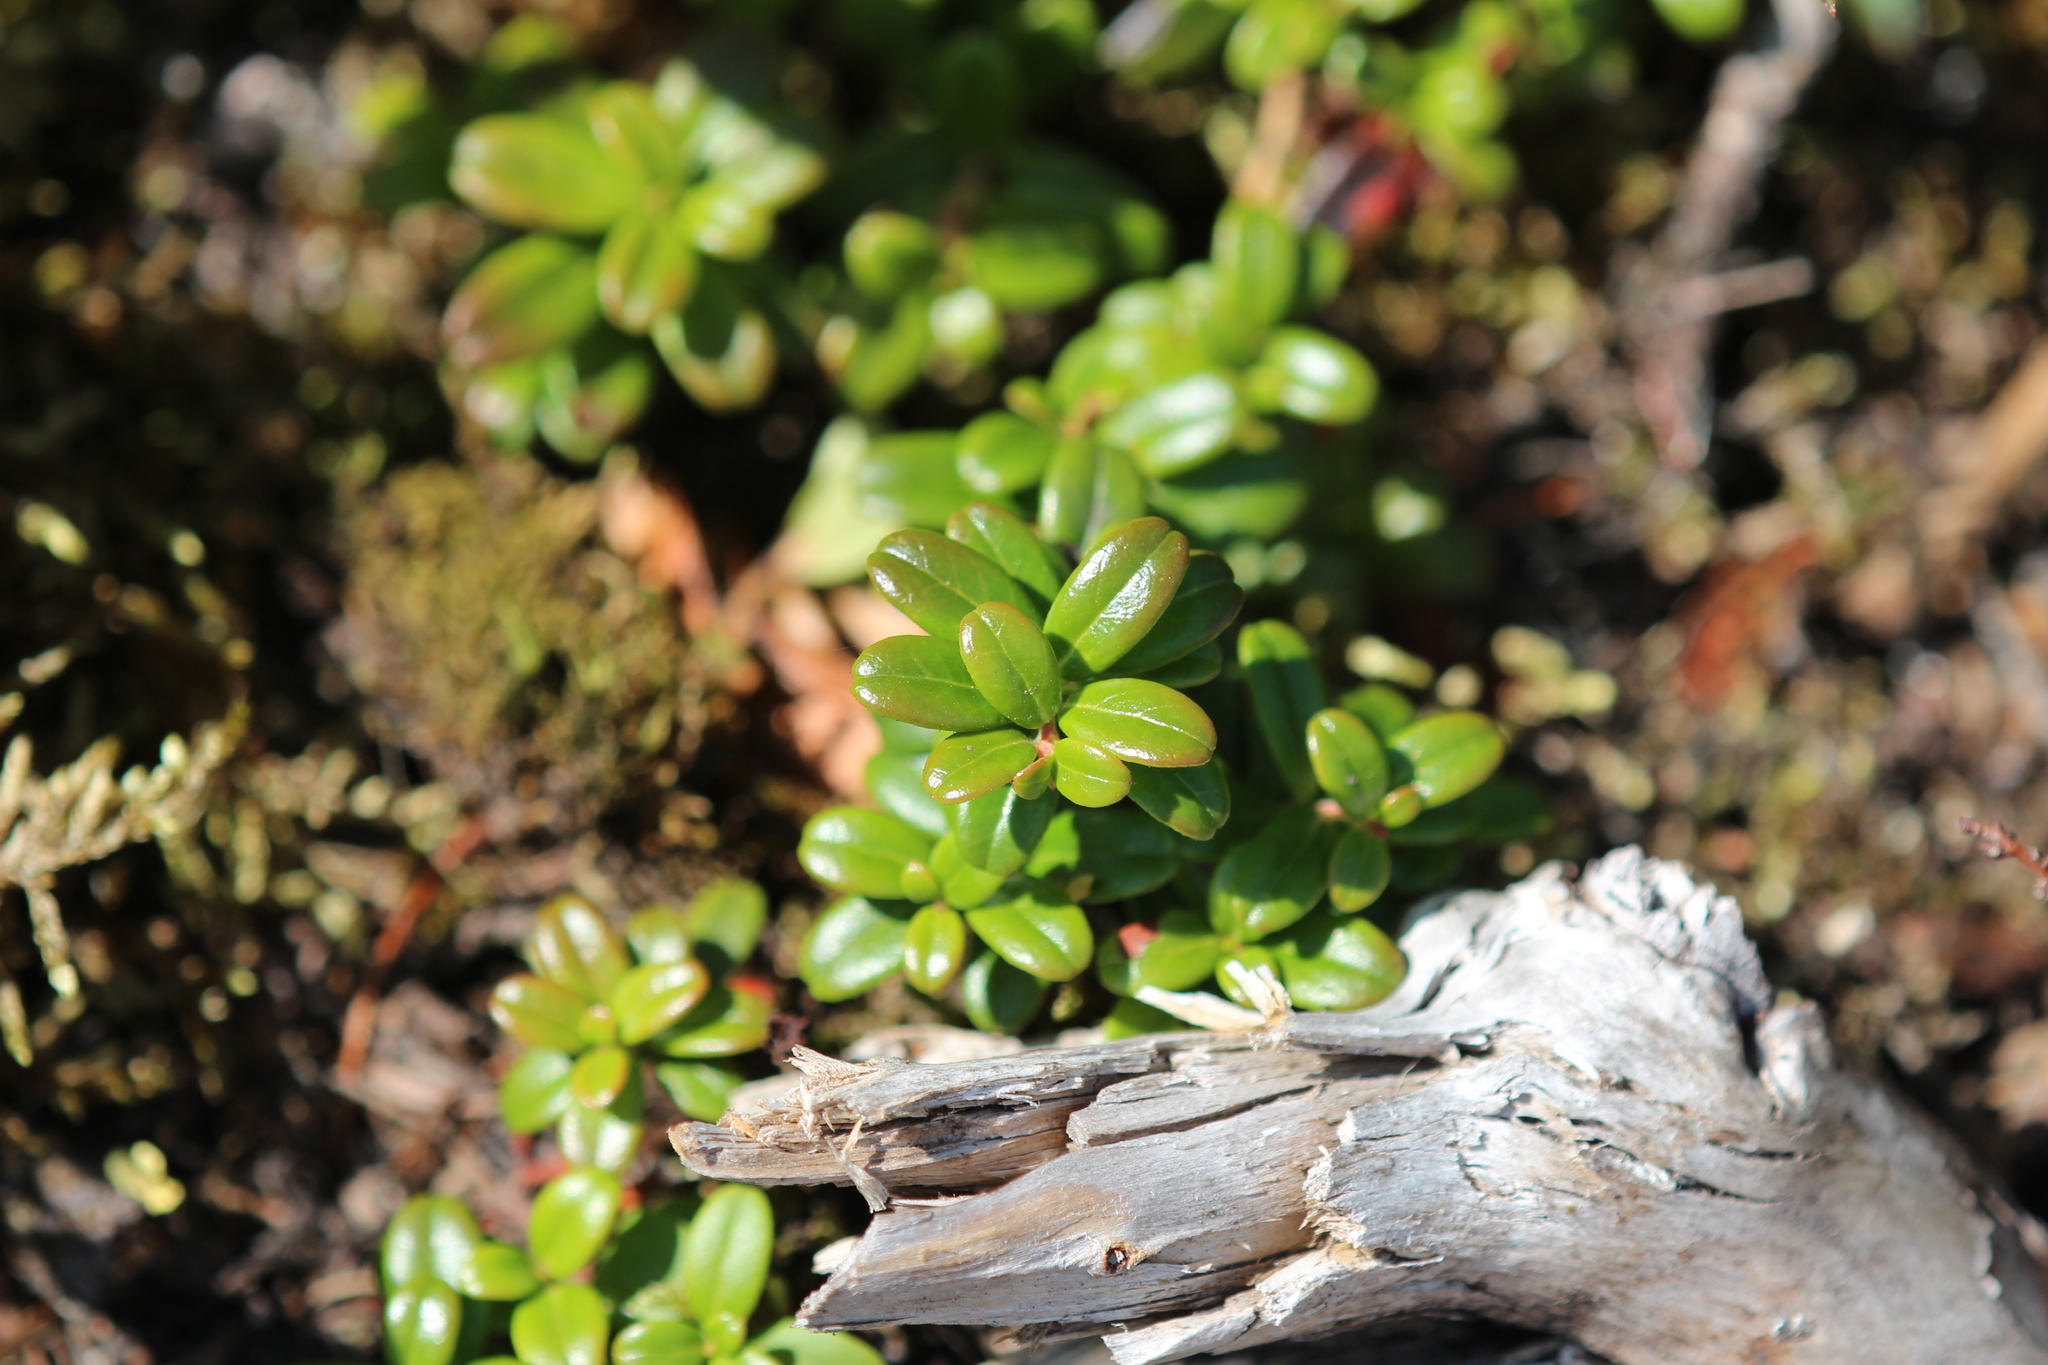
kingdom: Plantae
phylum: Tracheophyta
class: Magnoliopsida
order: Ericales
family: Ericaceae
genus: Vaccinium
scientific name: Vaccinium vitis-idaea
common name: Cowberry
